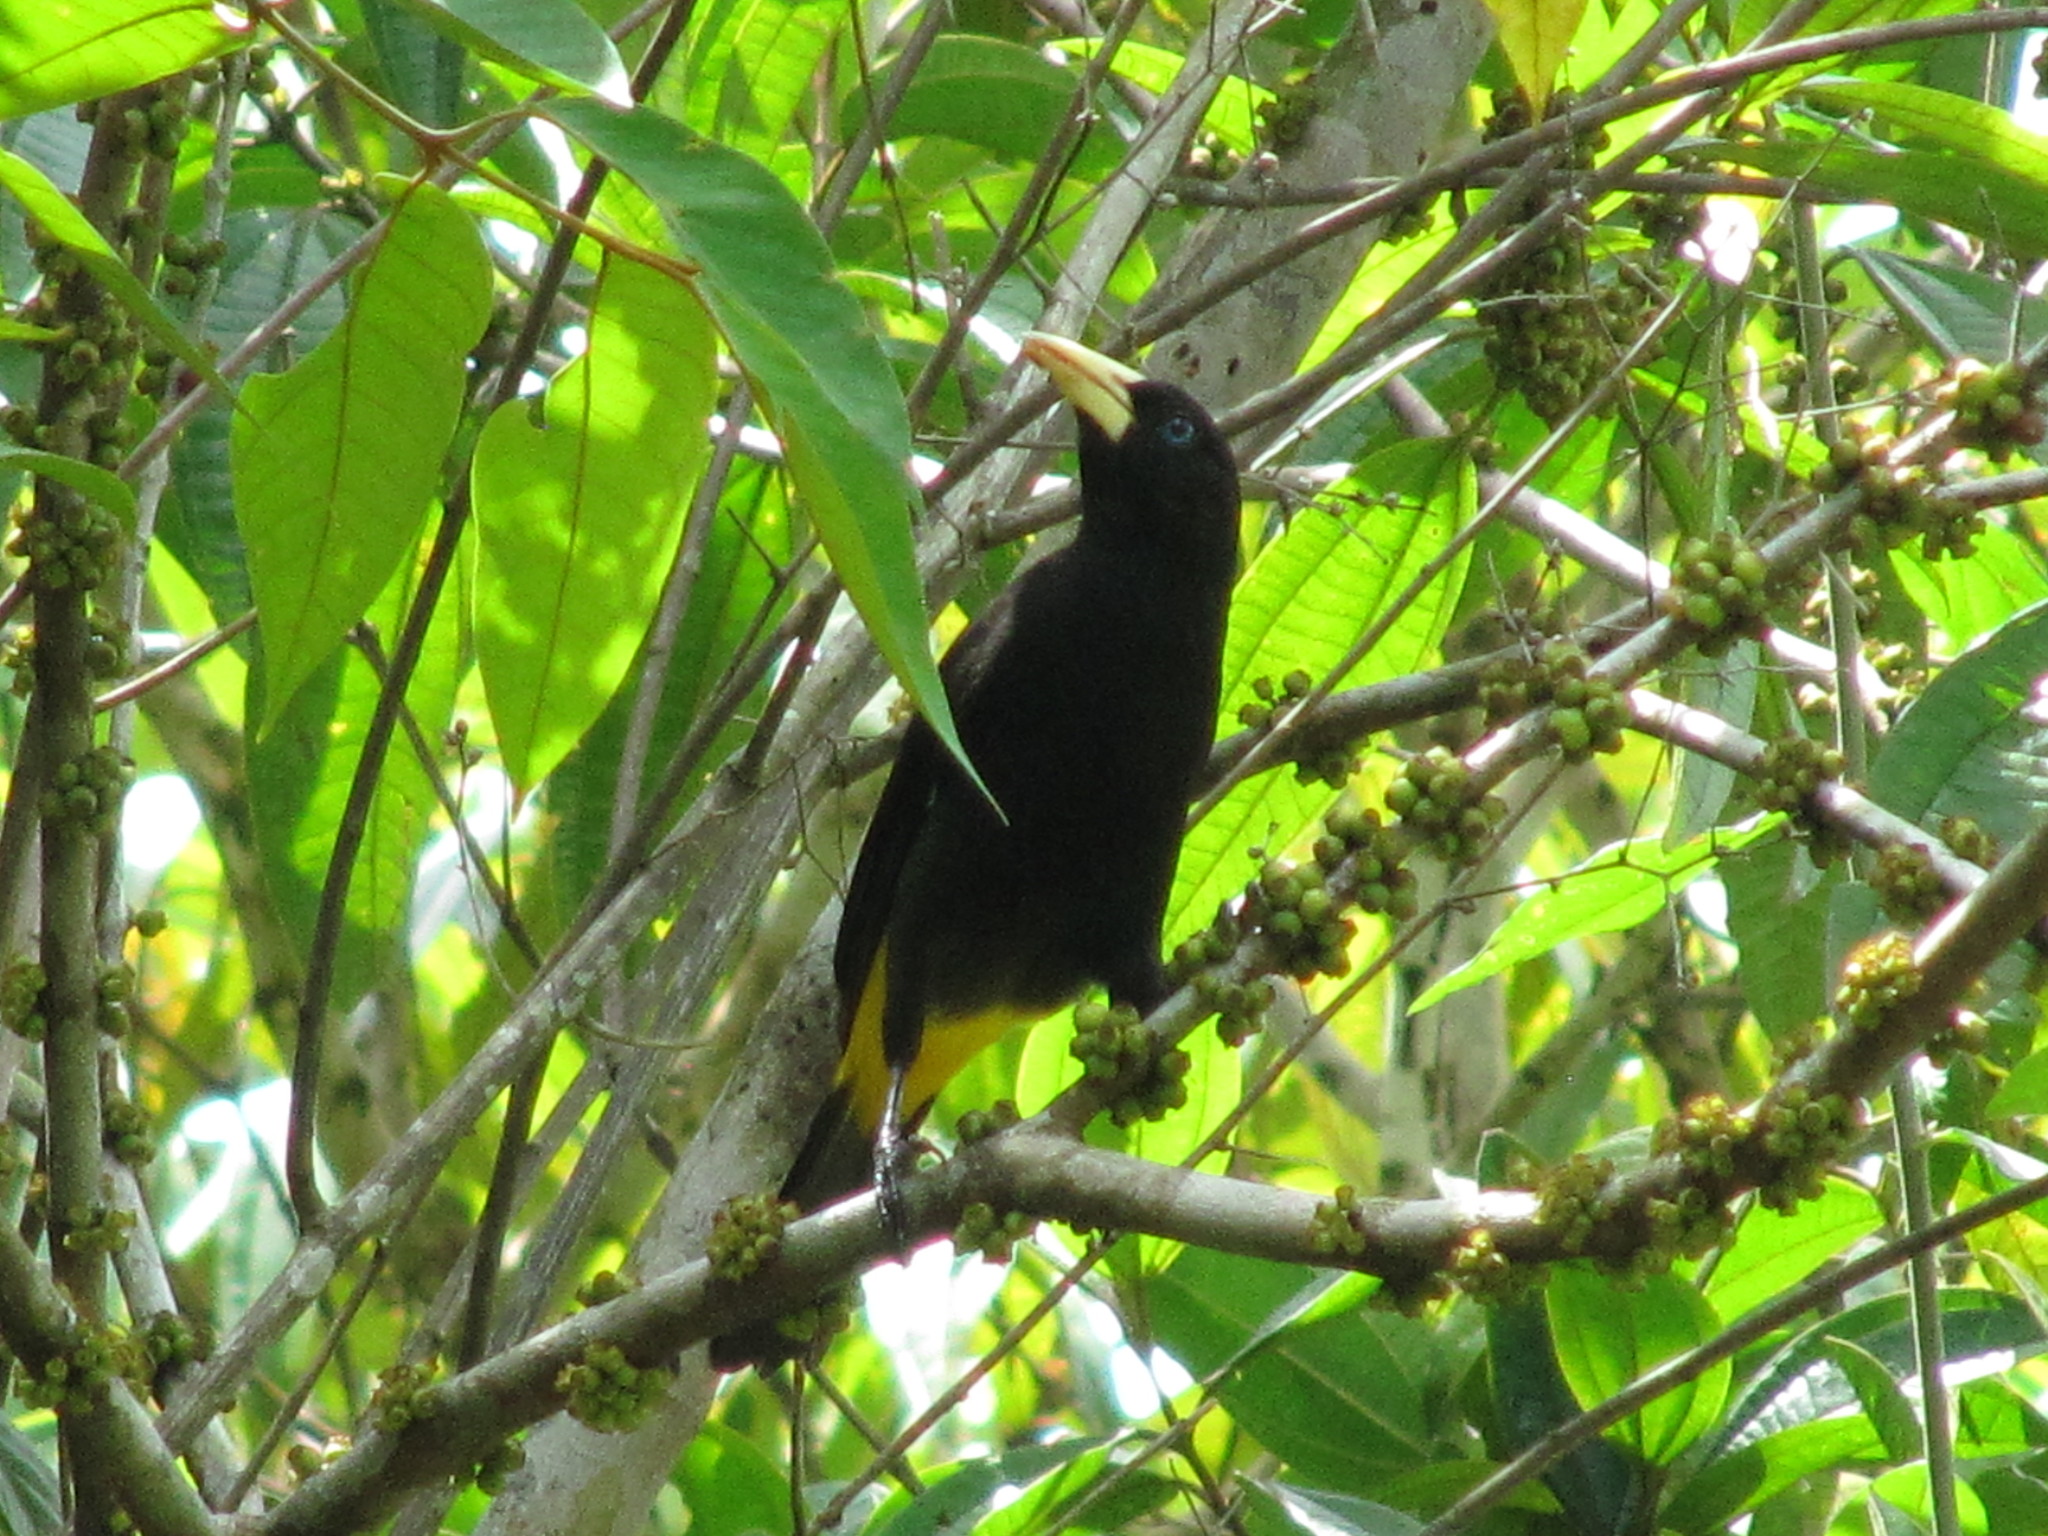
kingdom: Animalia
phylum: Chordata
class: Aves
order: Passeriformes
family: Icteridae
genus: Cacicus
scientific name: Cacicus cela
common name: Yellow-rumped cacique
